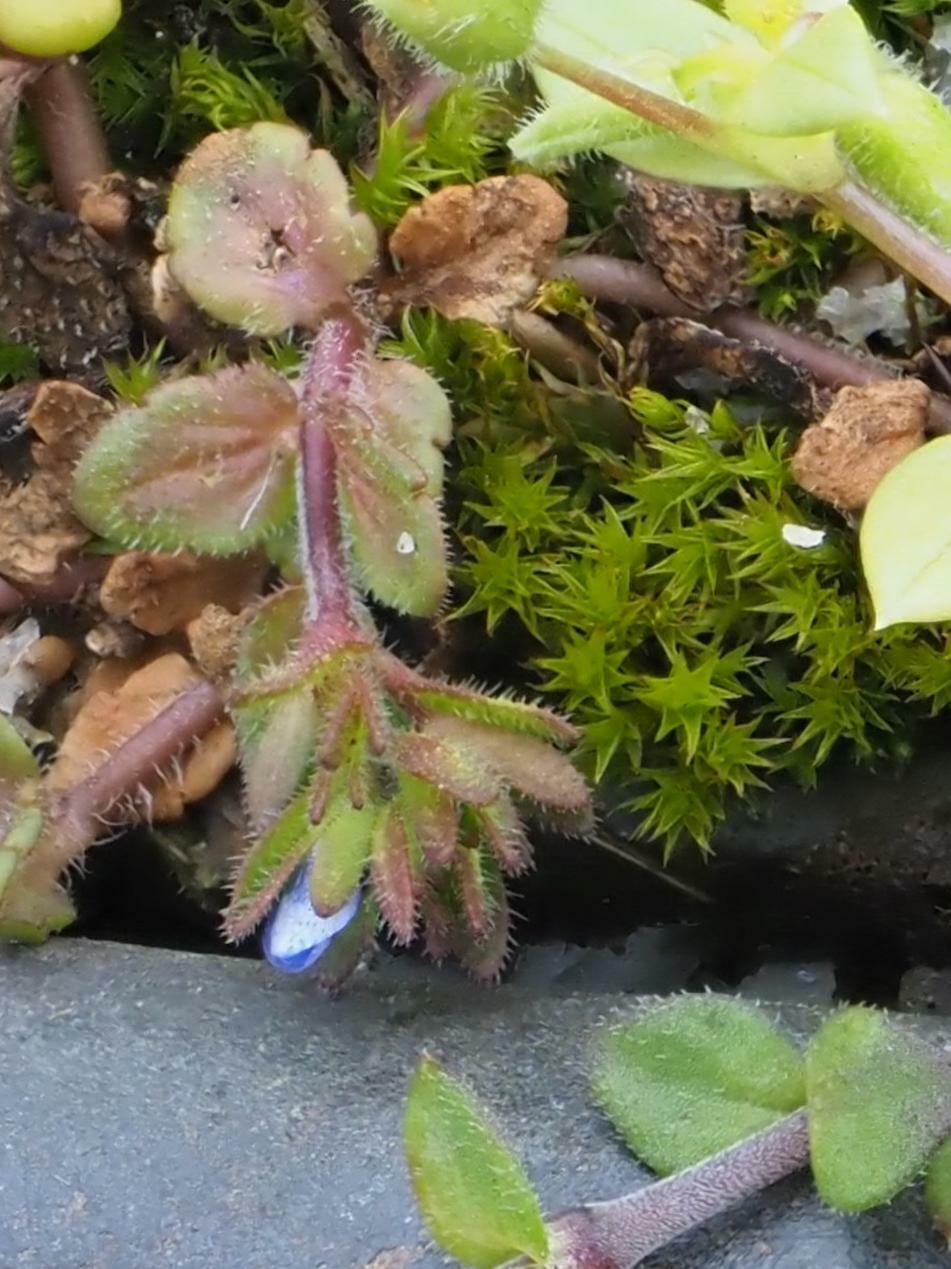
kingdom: Plantae
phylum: Tracheophyta
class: Magnoliopsida
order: Lamiales
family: Plantaginaceae
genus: Veronica
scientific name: Veronica arvensis
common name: Corn speedwell
